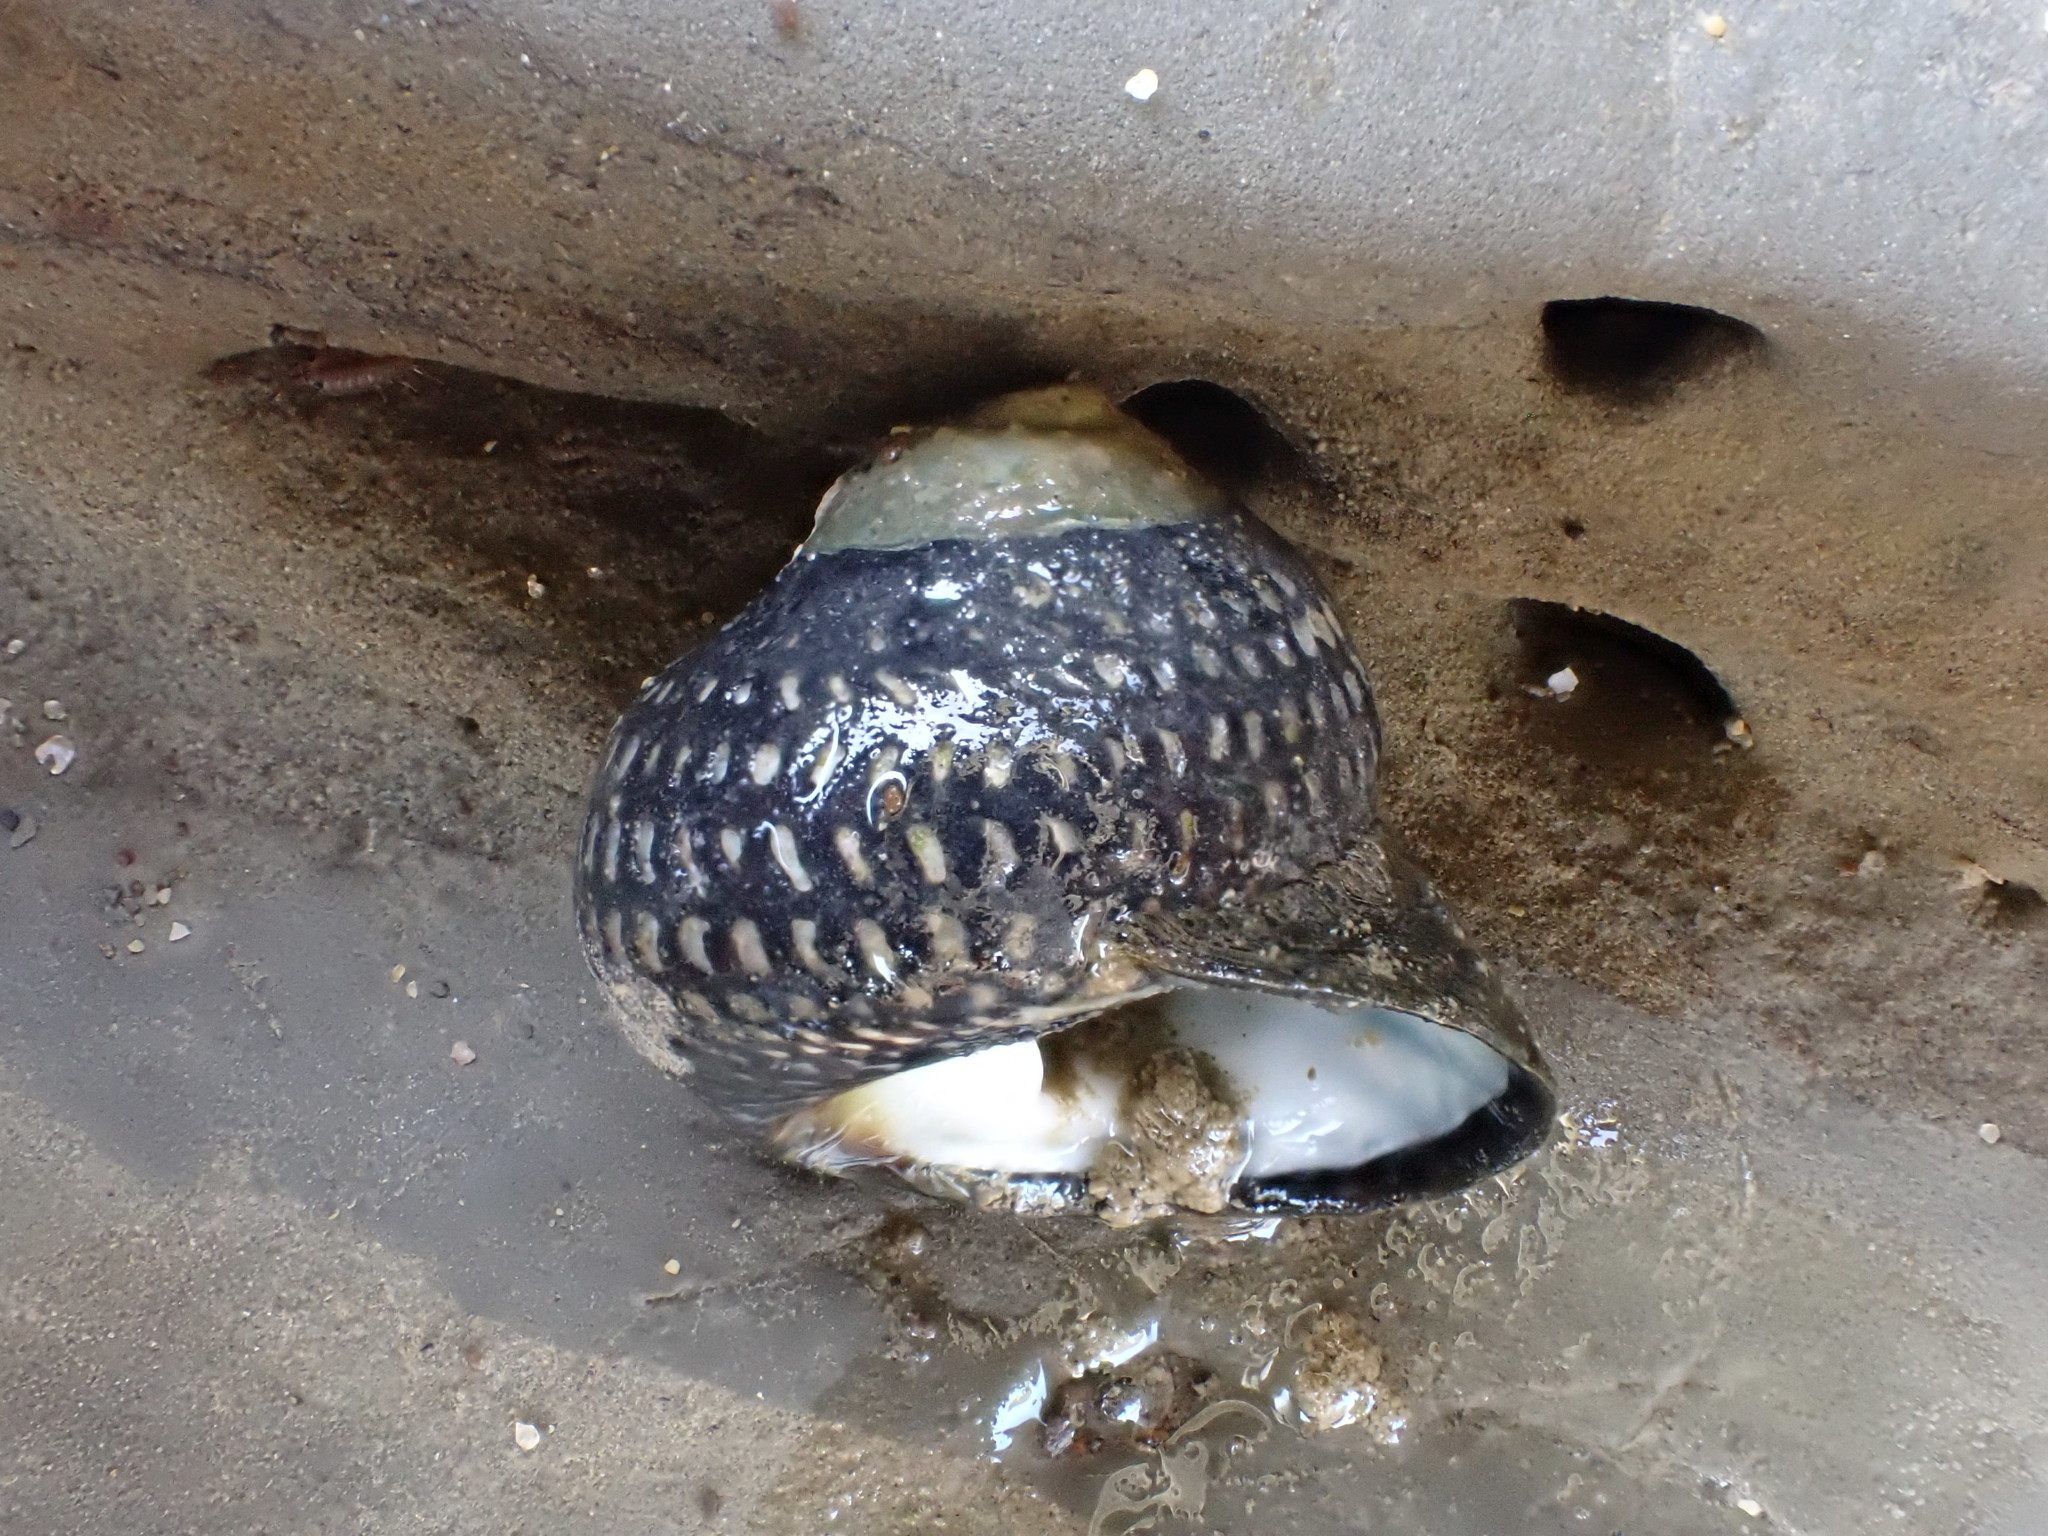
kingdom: Animalia
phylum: Mollusca
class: Gastropoda
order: Trochida
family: Trochidae
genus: Diloma
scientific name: Diloma aethiops
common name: Scorched monodont
